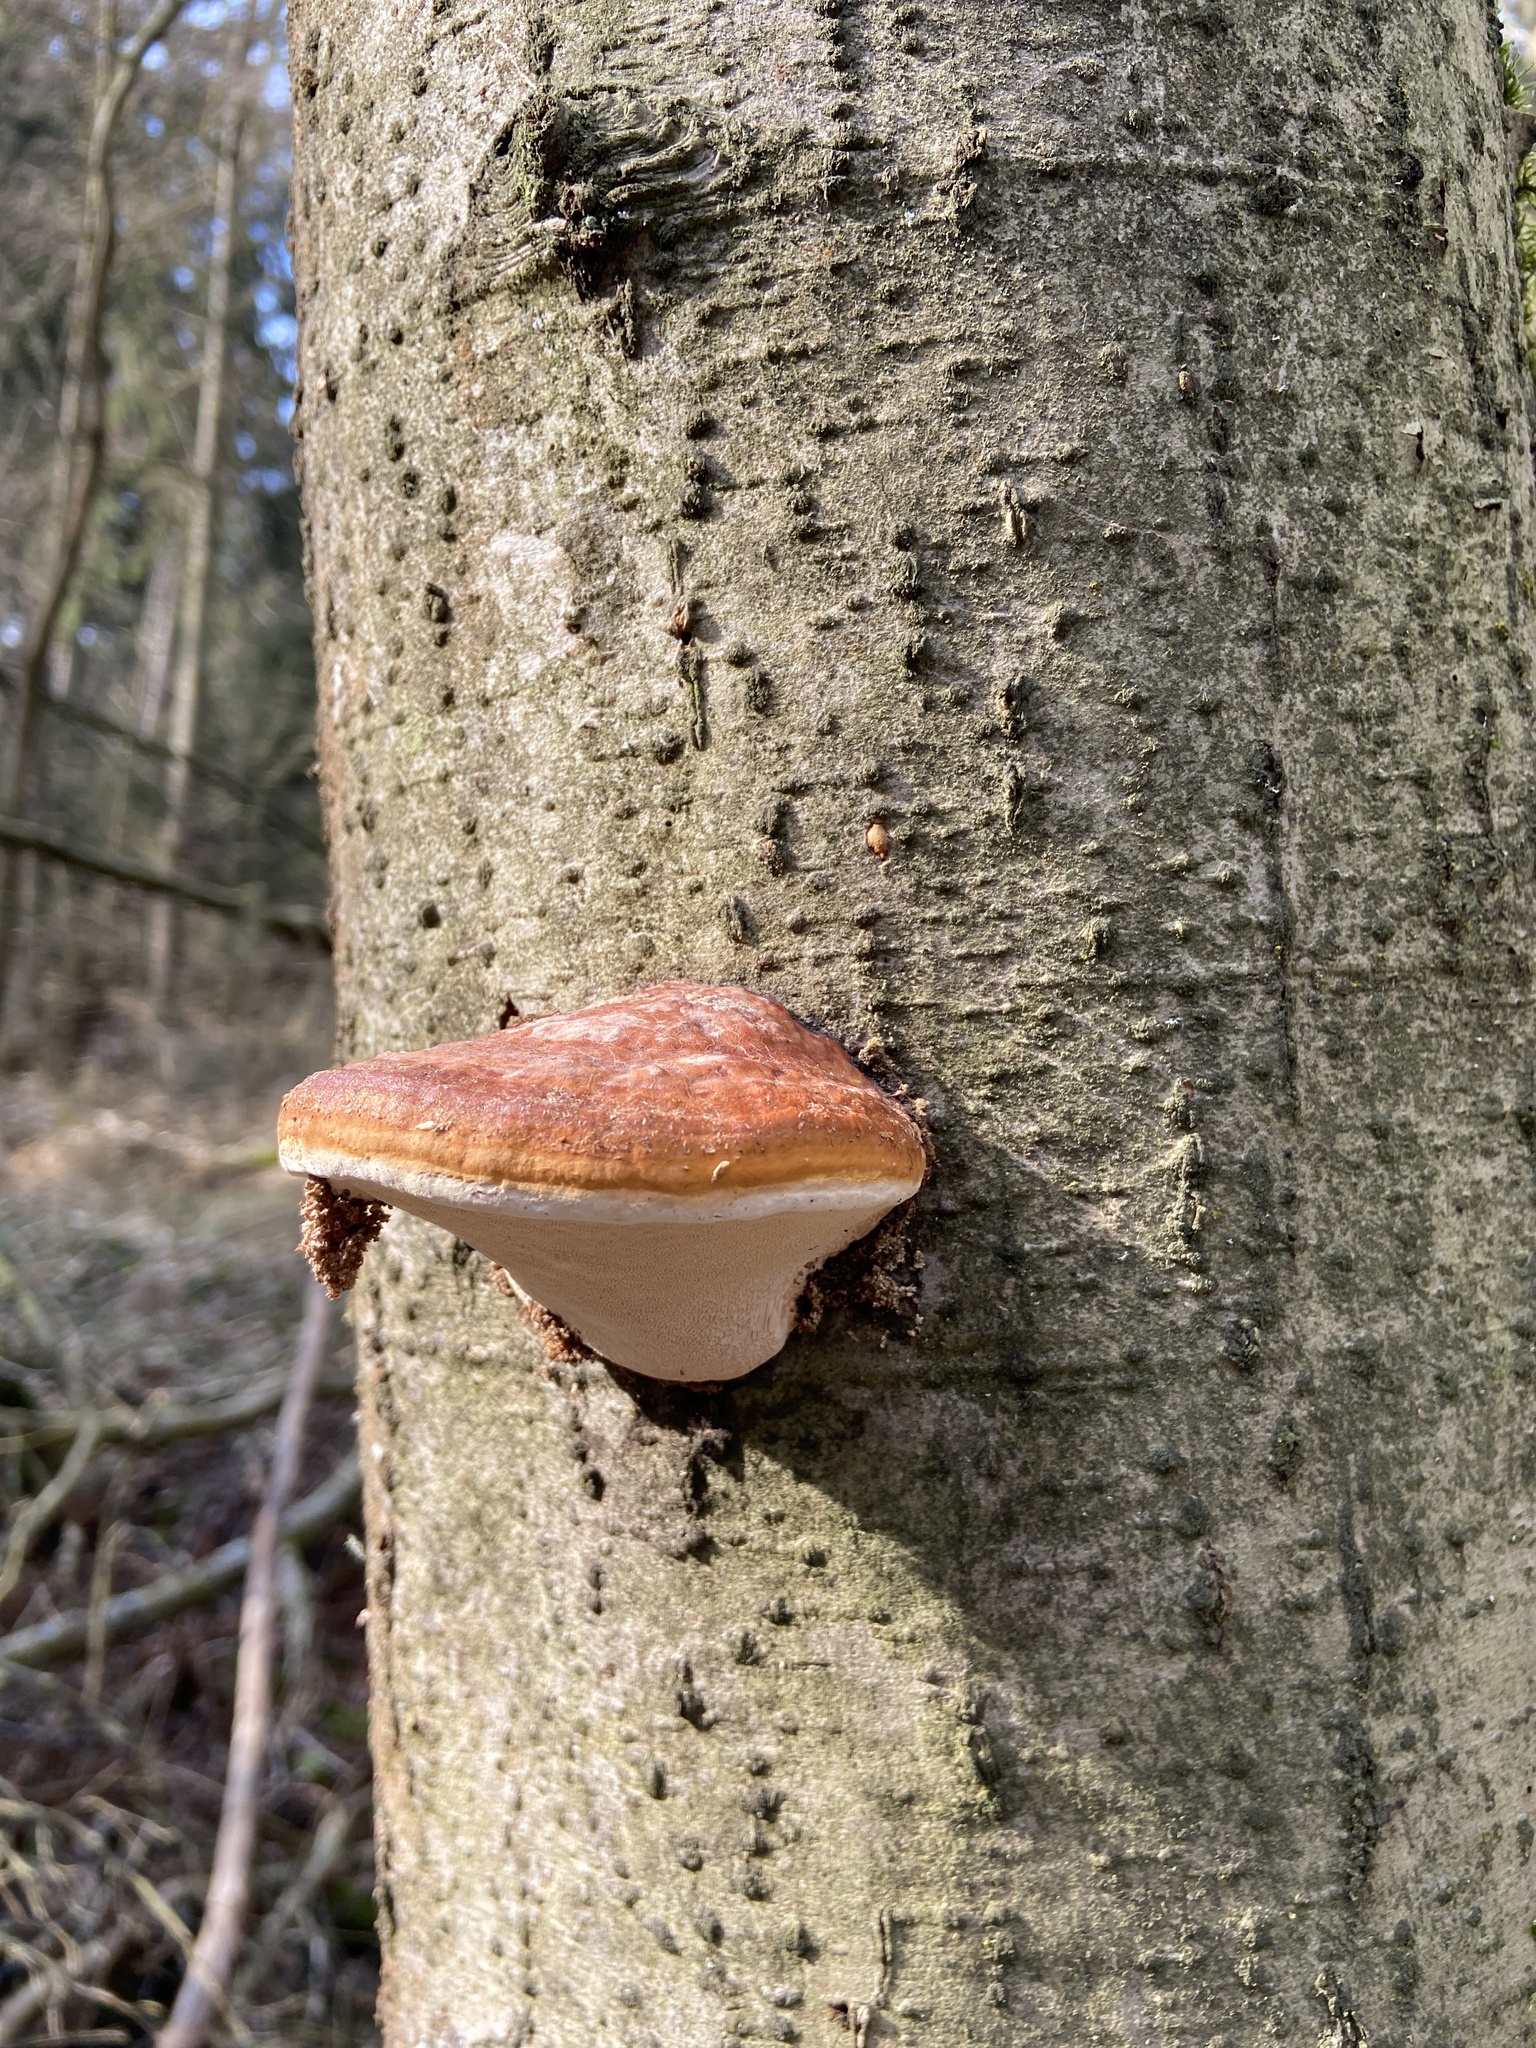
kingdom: Fungi
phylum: Basidiomycota
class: Agaricomycetes
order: Polyporales
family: Fomitopsidaceae
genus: Fomitopsis
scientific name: Fomitopsis pinicola
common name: Red-belted bracket
